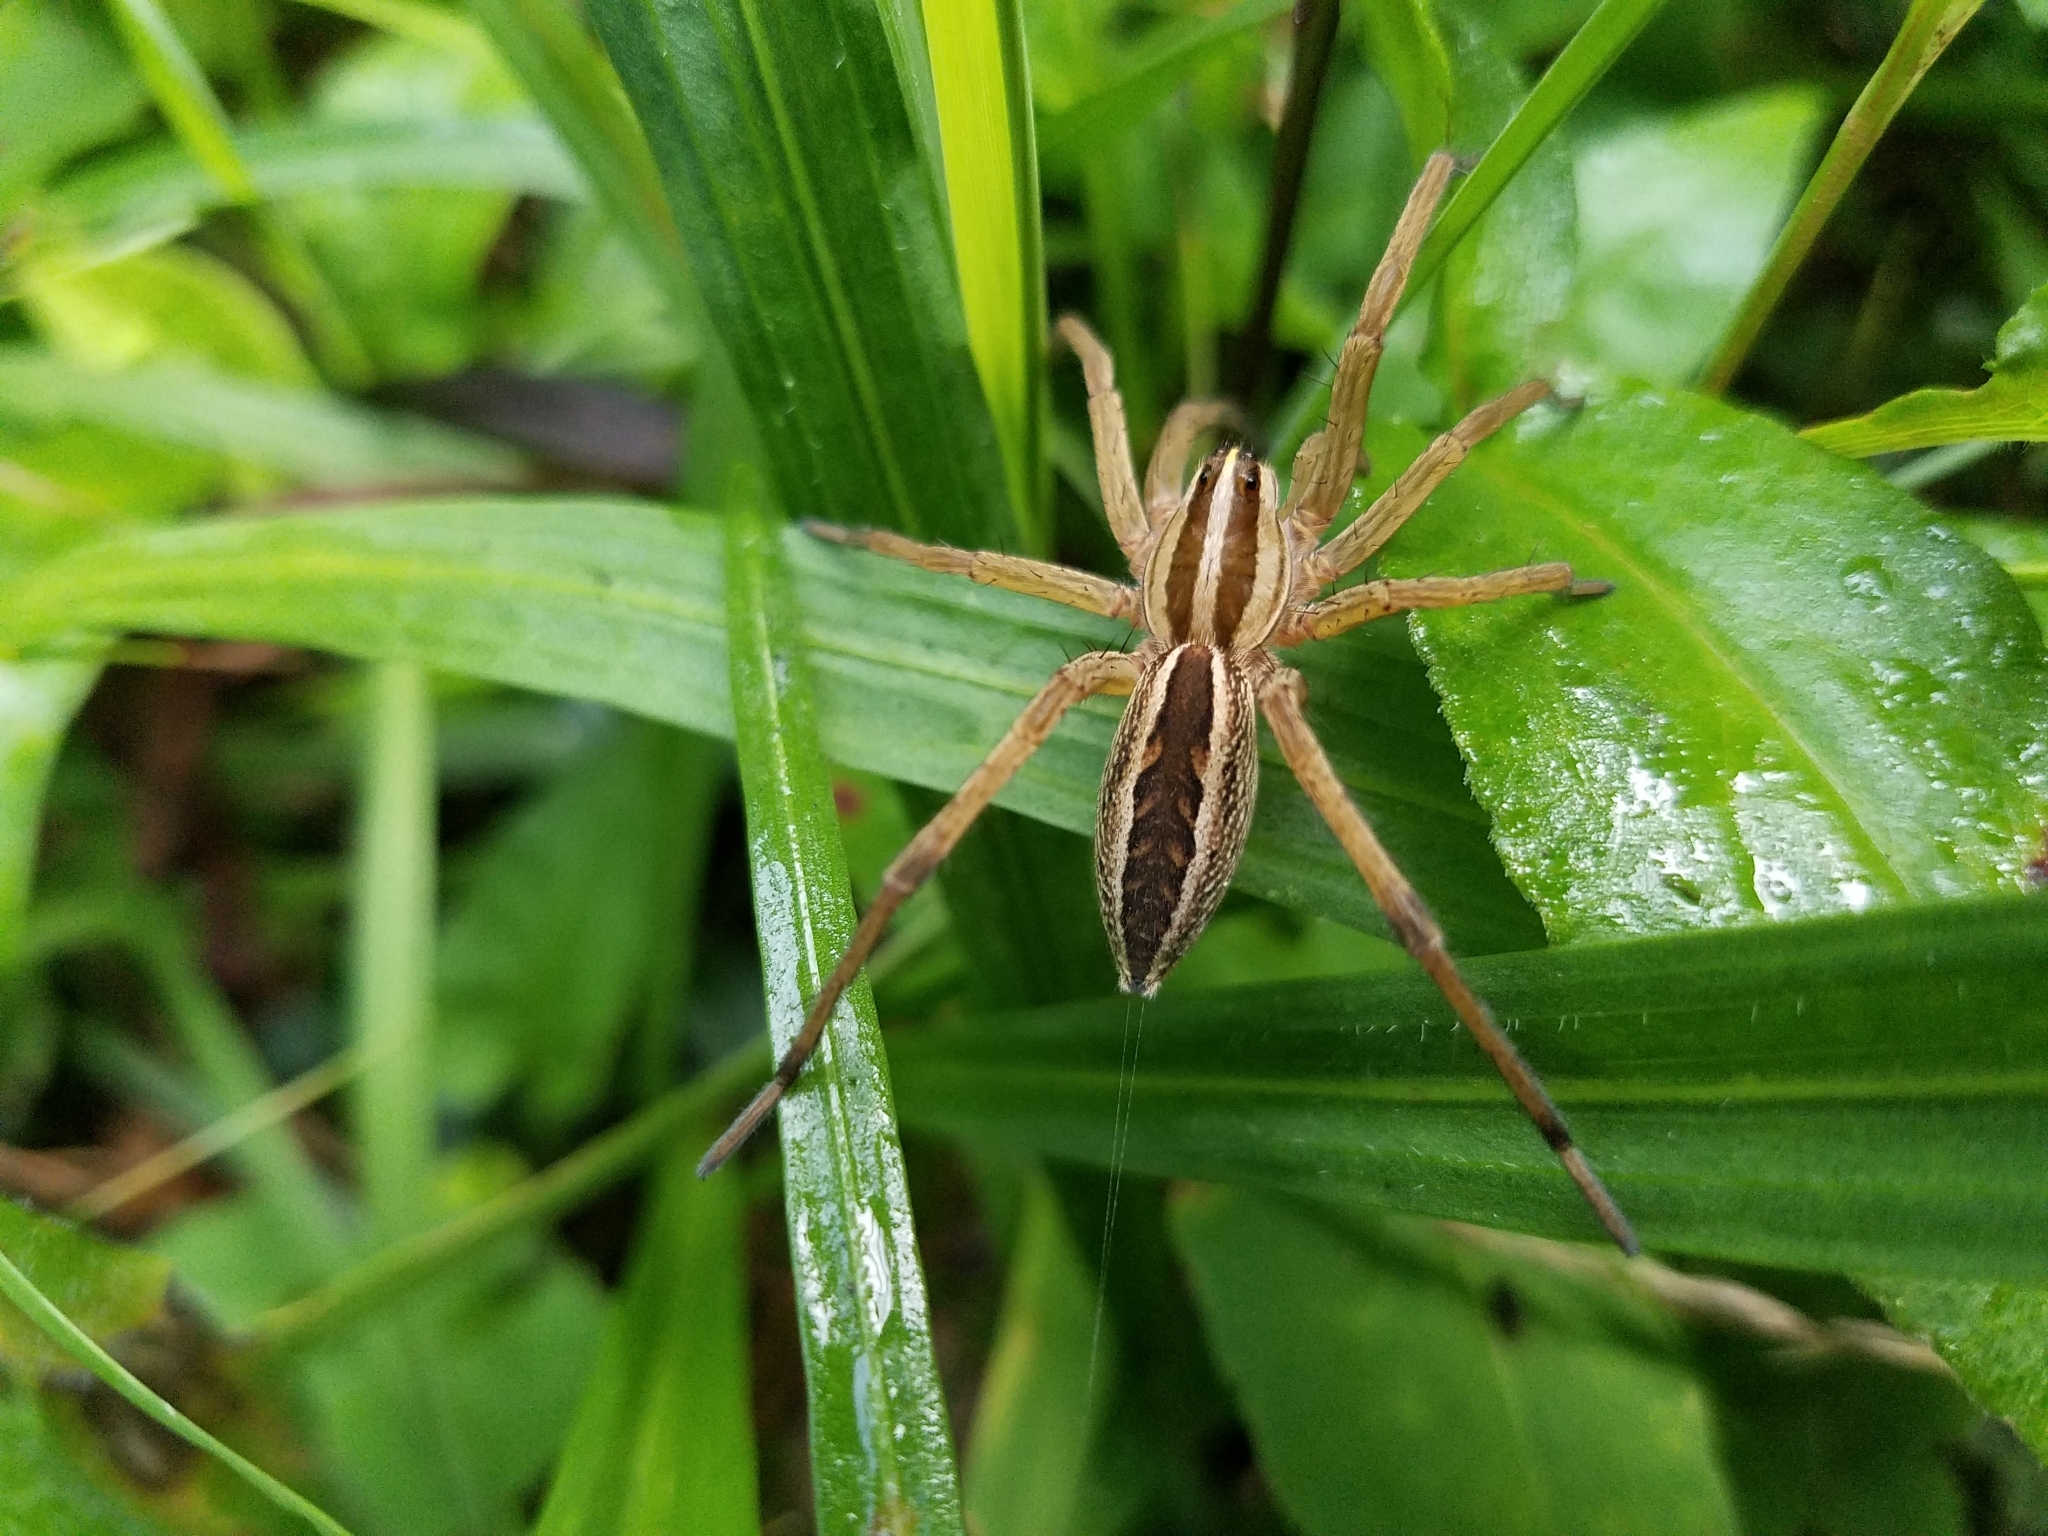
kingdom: Animalia
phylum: Arthropoda
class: Arachnida
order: Araneae
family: Lycosidae
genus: Rabidosa
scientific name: Rabidosa rabida
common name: Rabid wolf spider
